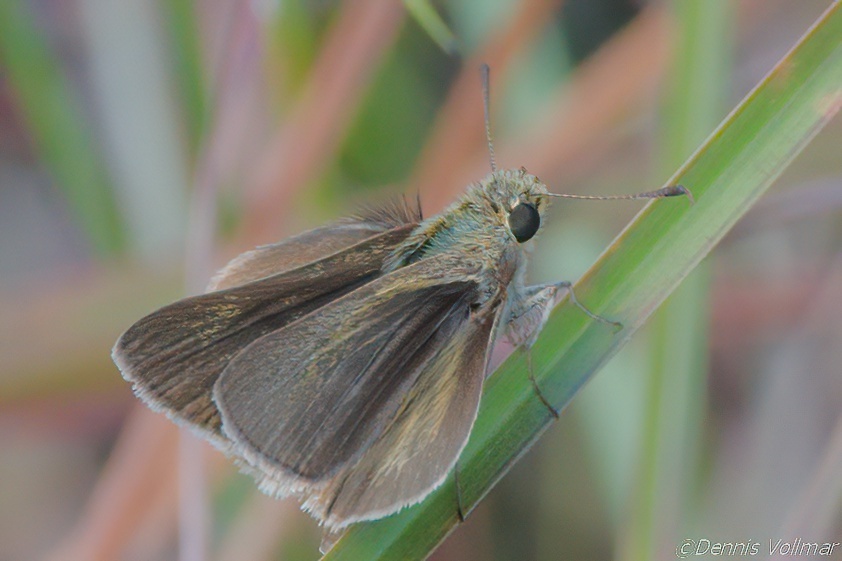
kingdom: Animalia
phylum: Arthropoda
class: Insecta
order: Lepidoptera
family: Hesperiidae
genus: Nastra
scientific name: Nastra lherminier
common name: Swarthy skipper
